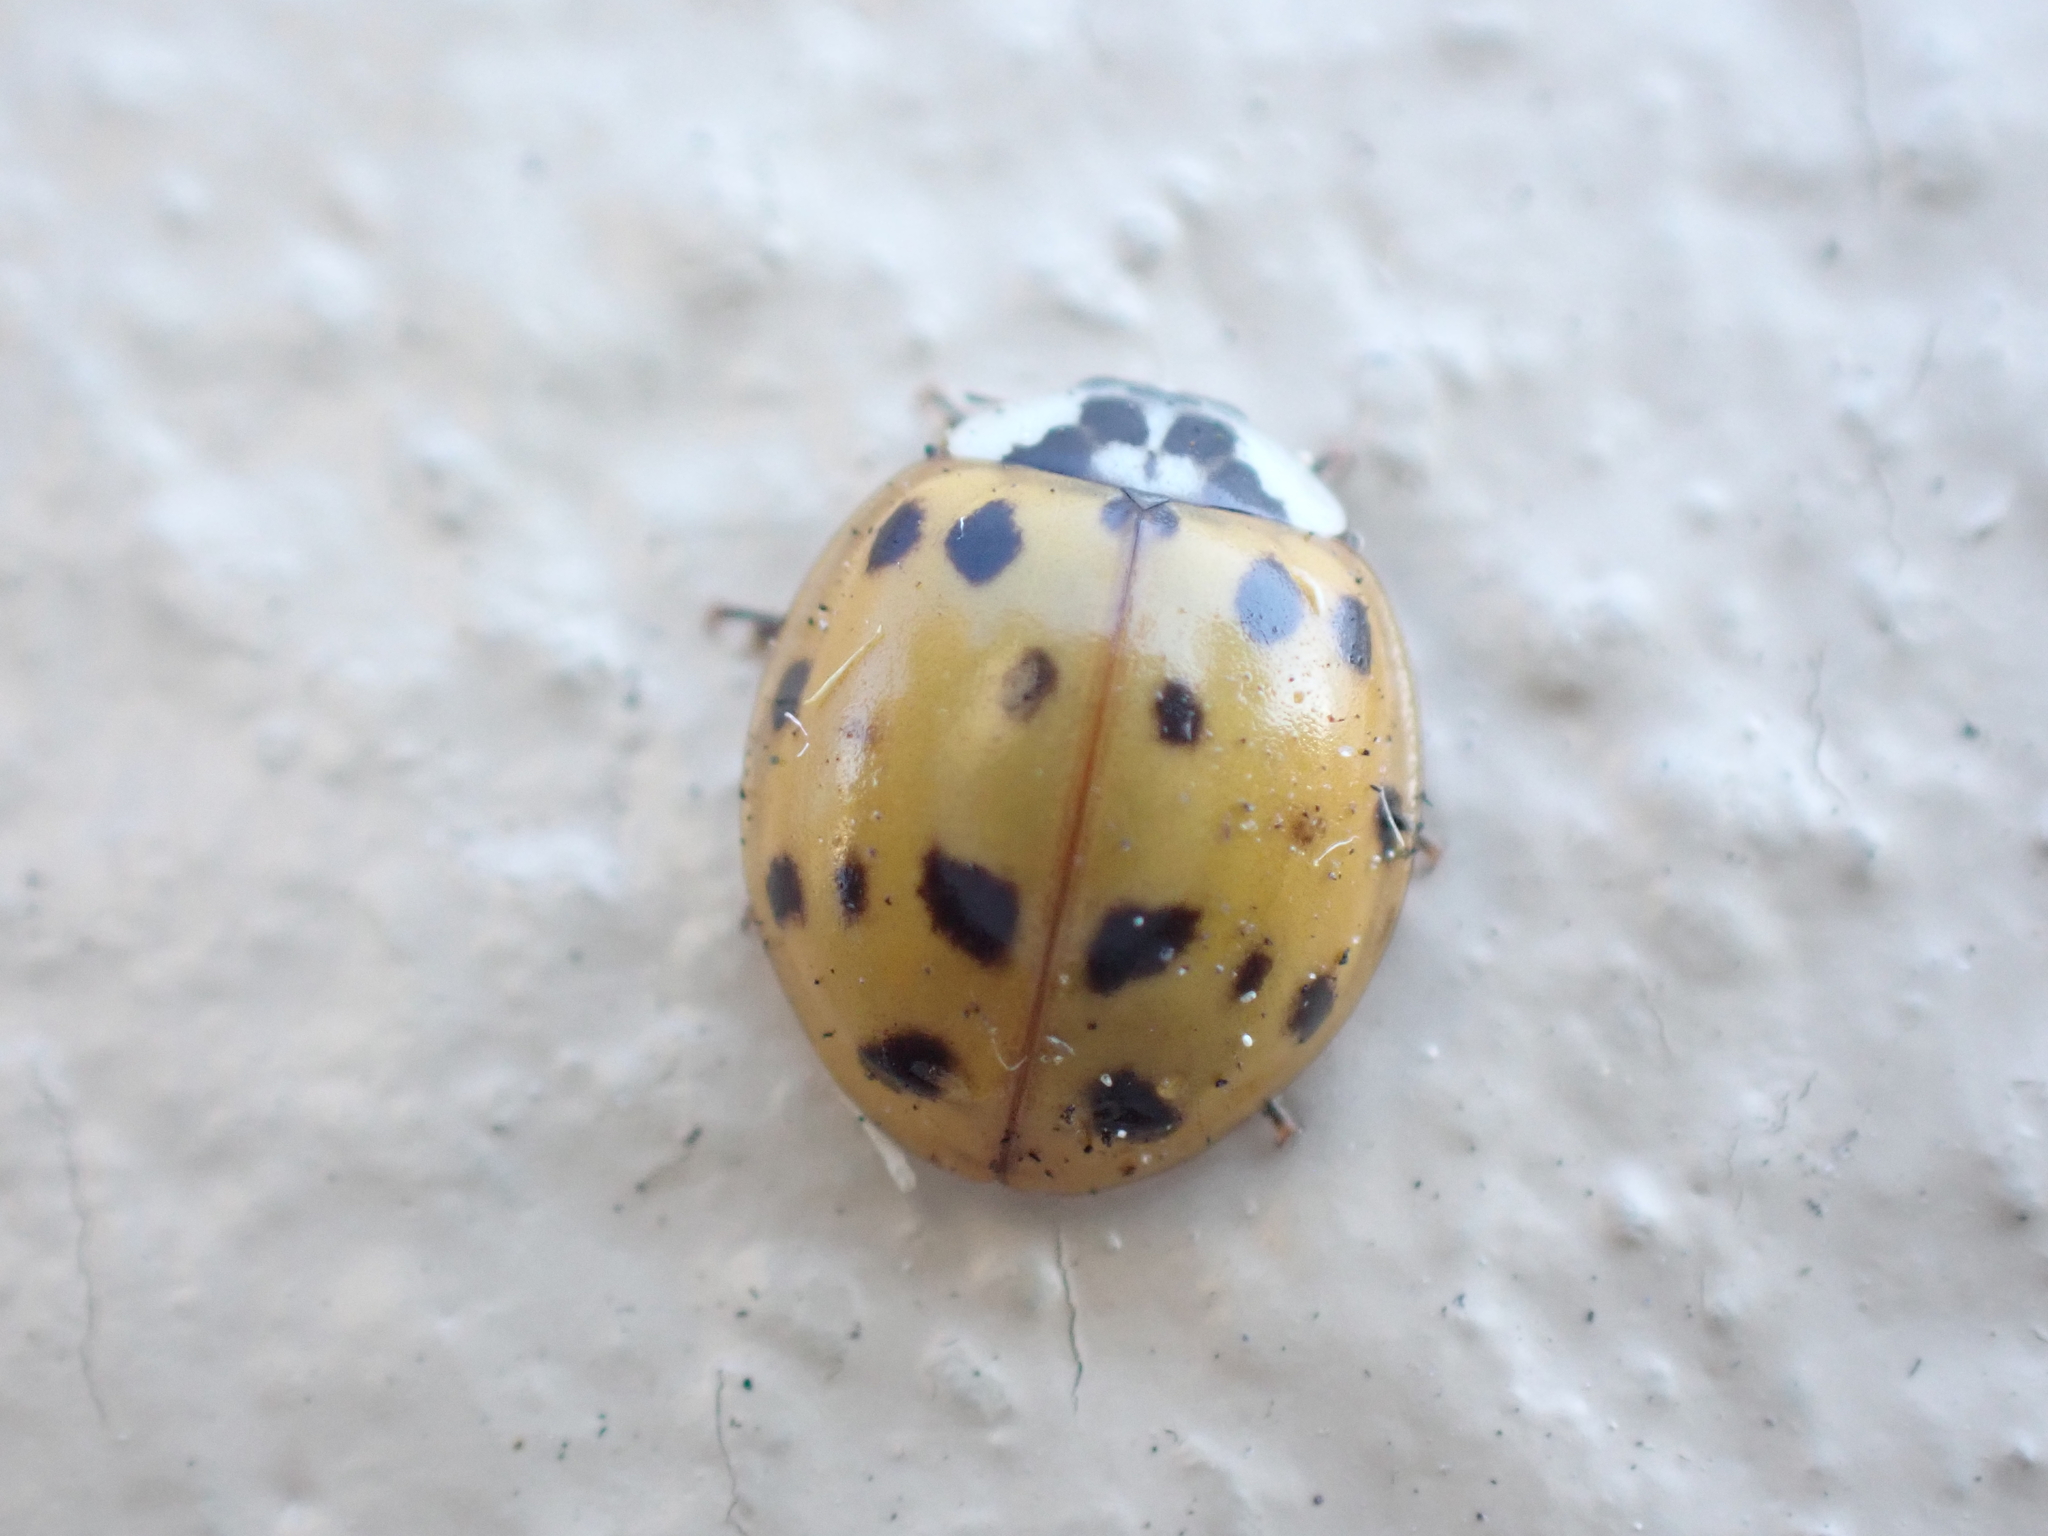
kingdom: Animalia
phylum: Arthropoda
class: Insecta
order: Coleoptera
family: Coccinellidae
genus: Harmonia
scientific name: Harmonia axyridis
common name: Harlequin ladybird
